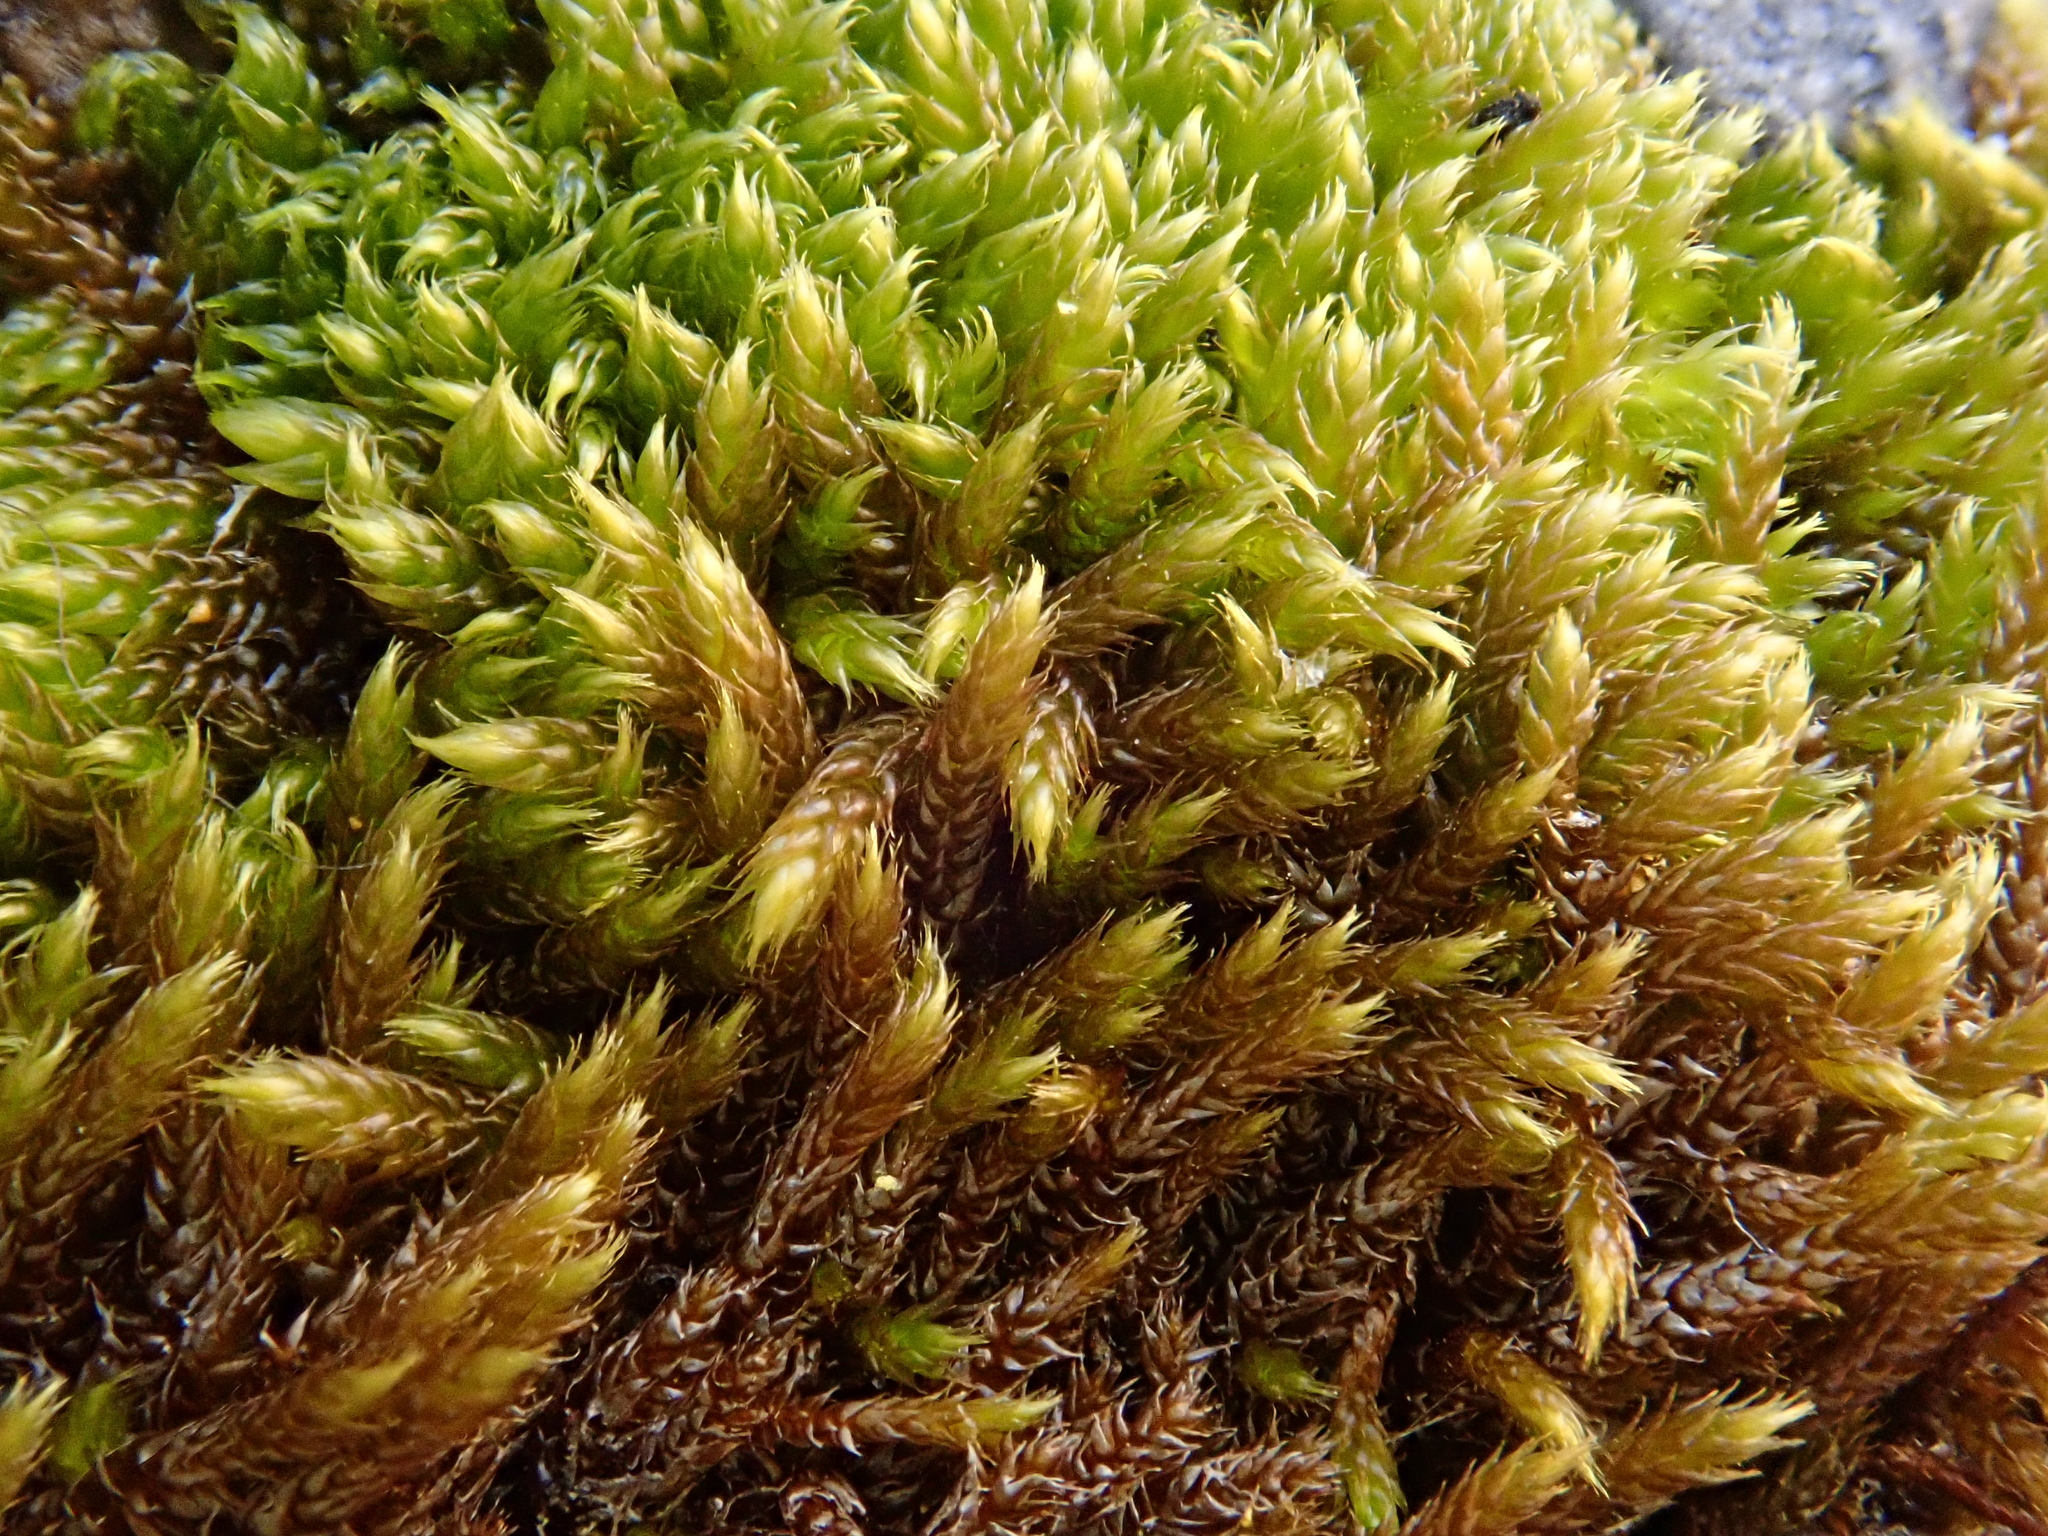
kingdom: Plantae
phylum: Bryophyta
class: Bryopsida
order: Hypnales
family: Pylaisiaceae
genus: Buckia
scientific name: Buckia vaucheri
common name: Vaucher's feather-moss
